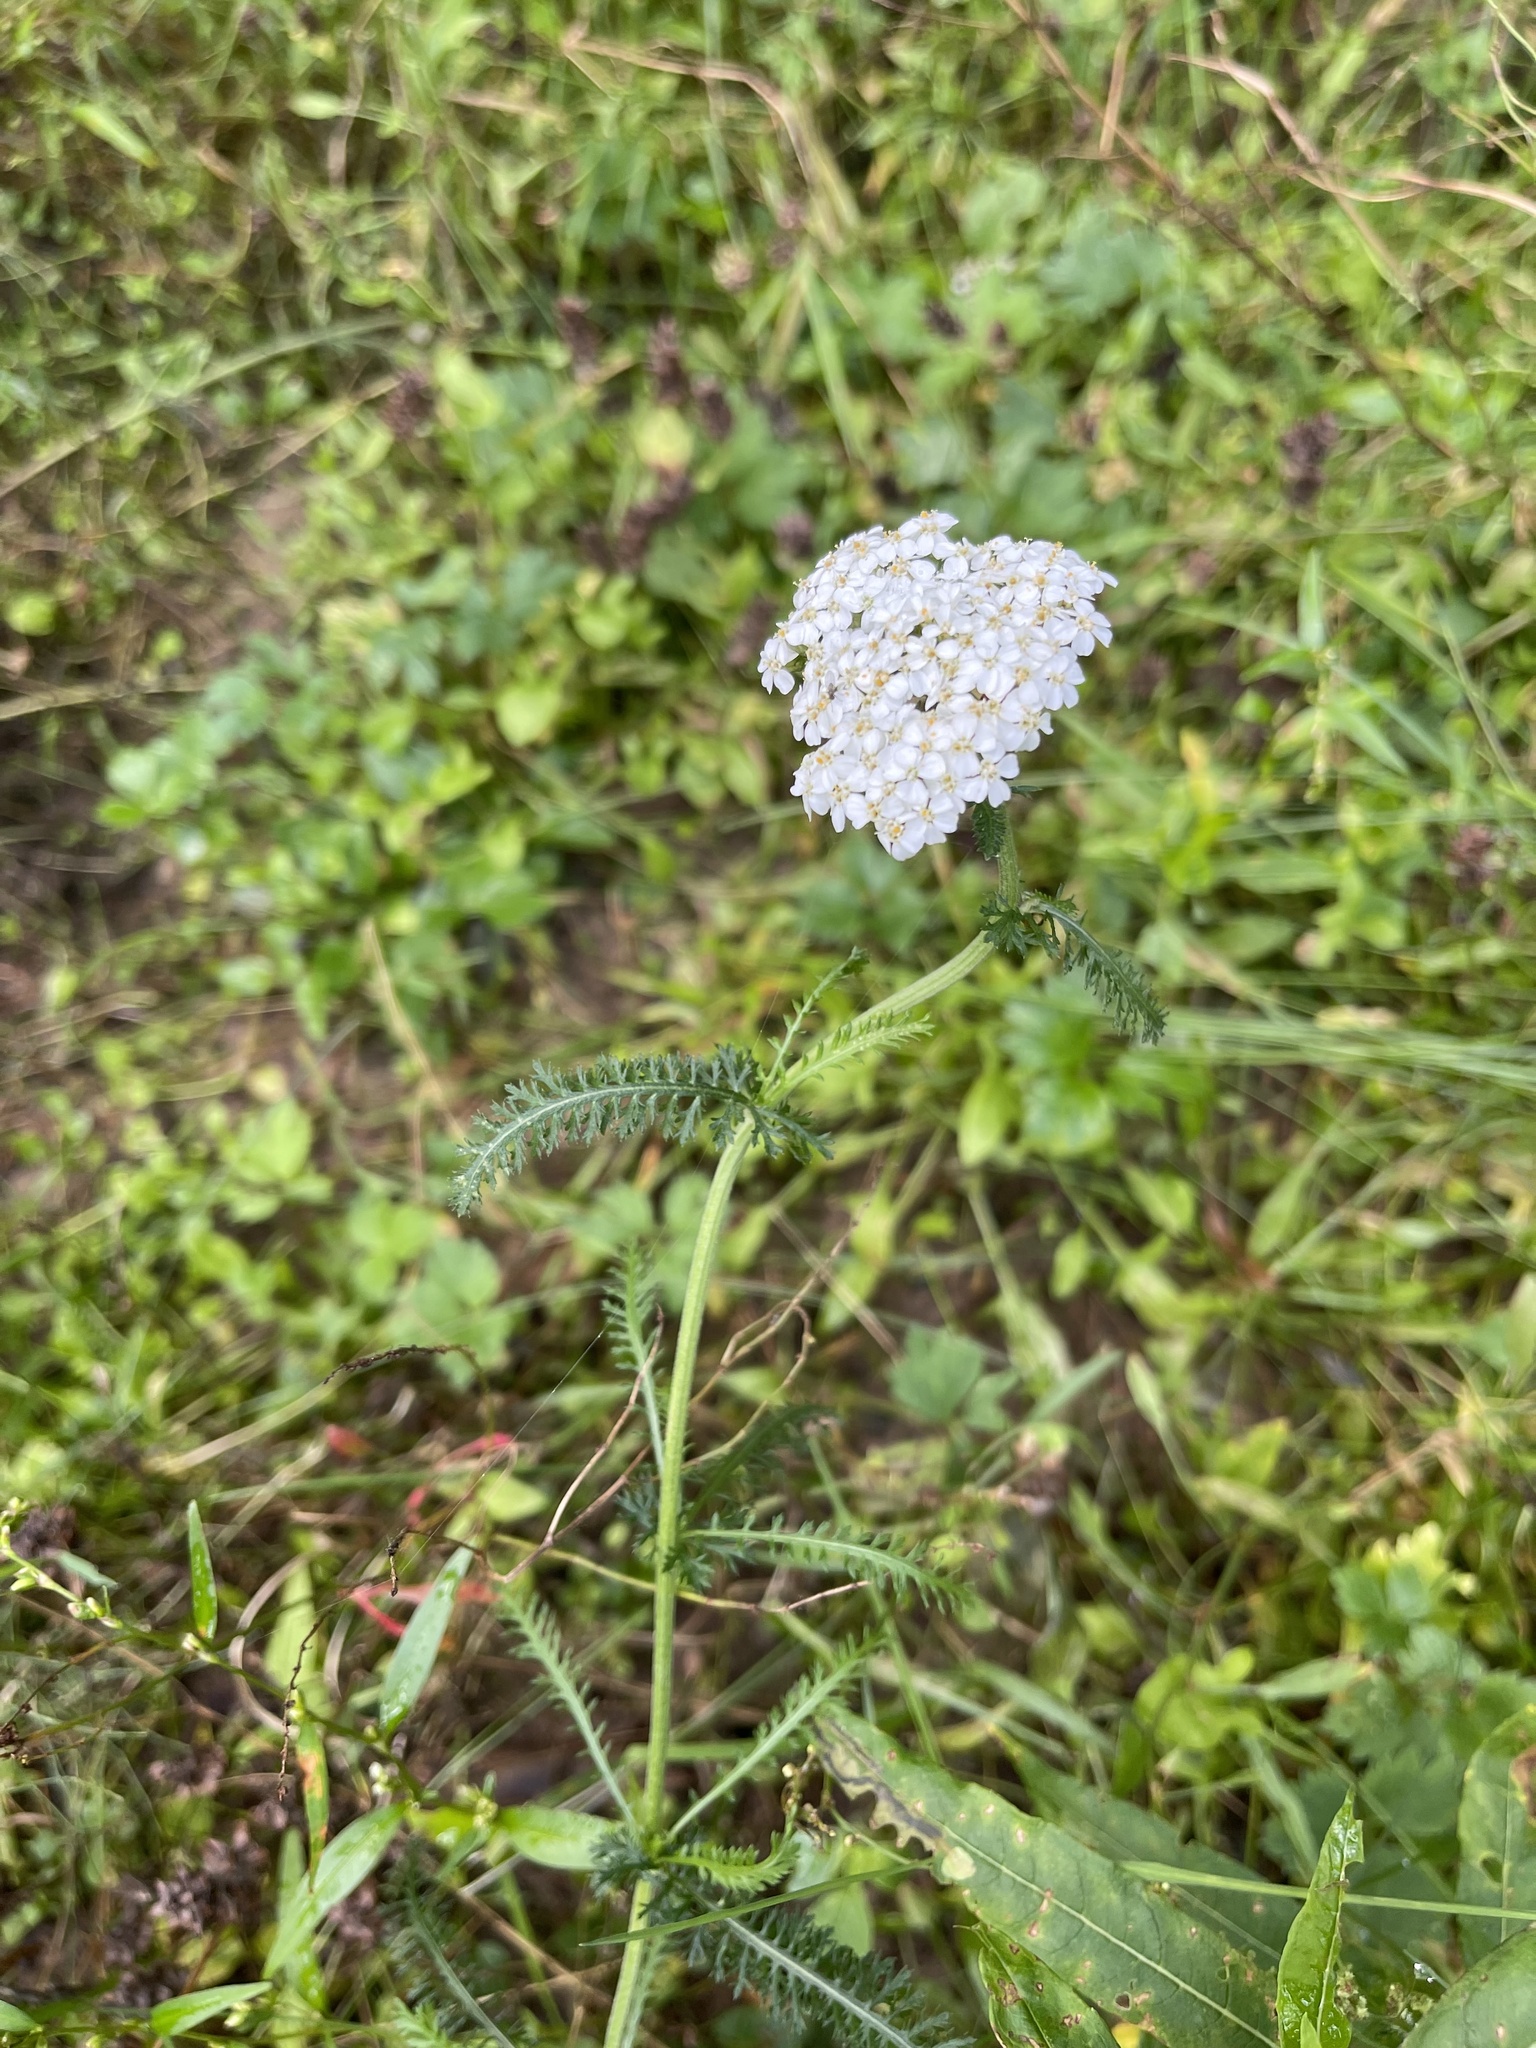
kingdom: Plantae
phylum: Tracheophyta
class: Magnoliopsida
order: Asterales
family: Asteraceae
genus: Achillea
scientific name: Achillea millefolium
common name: Yarrow
